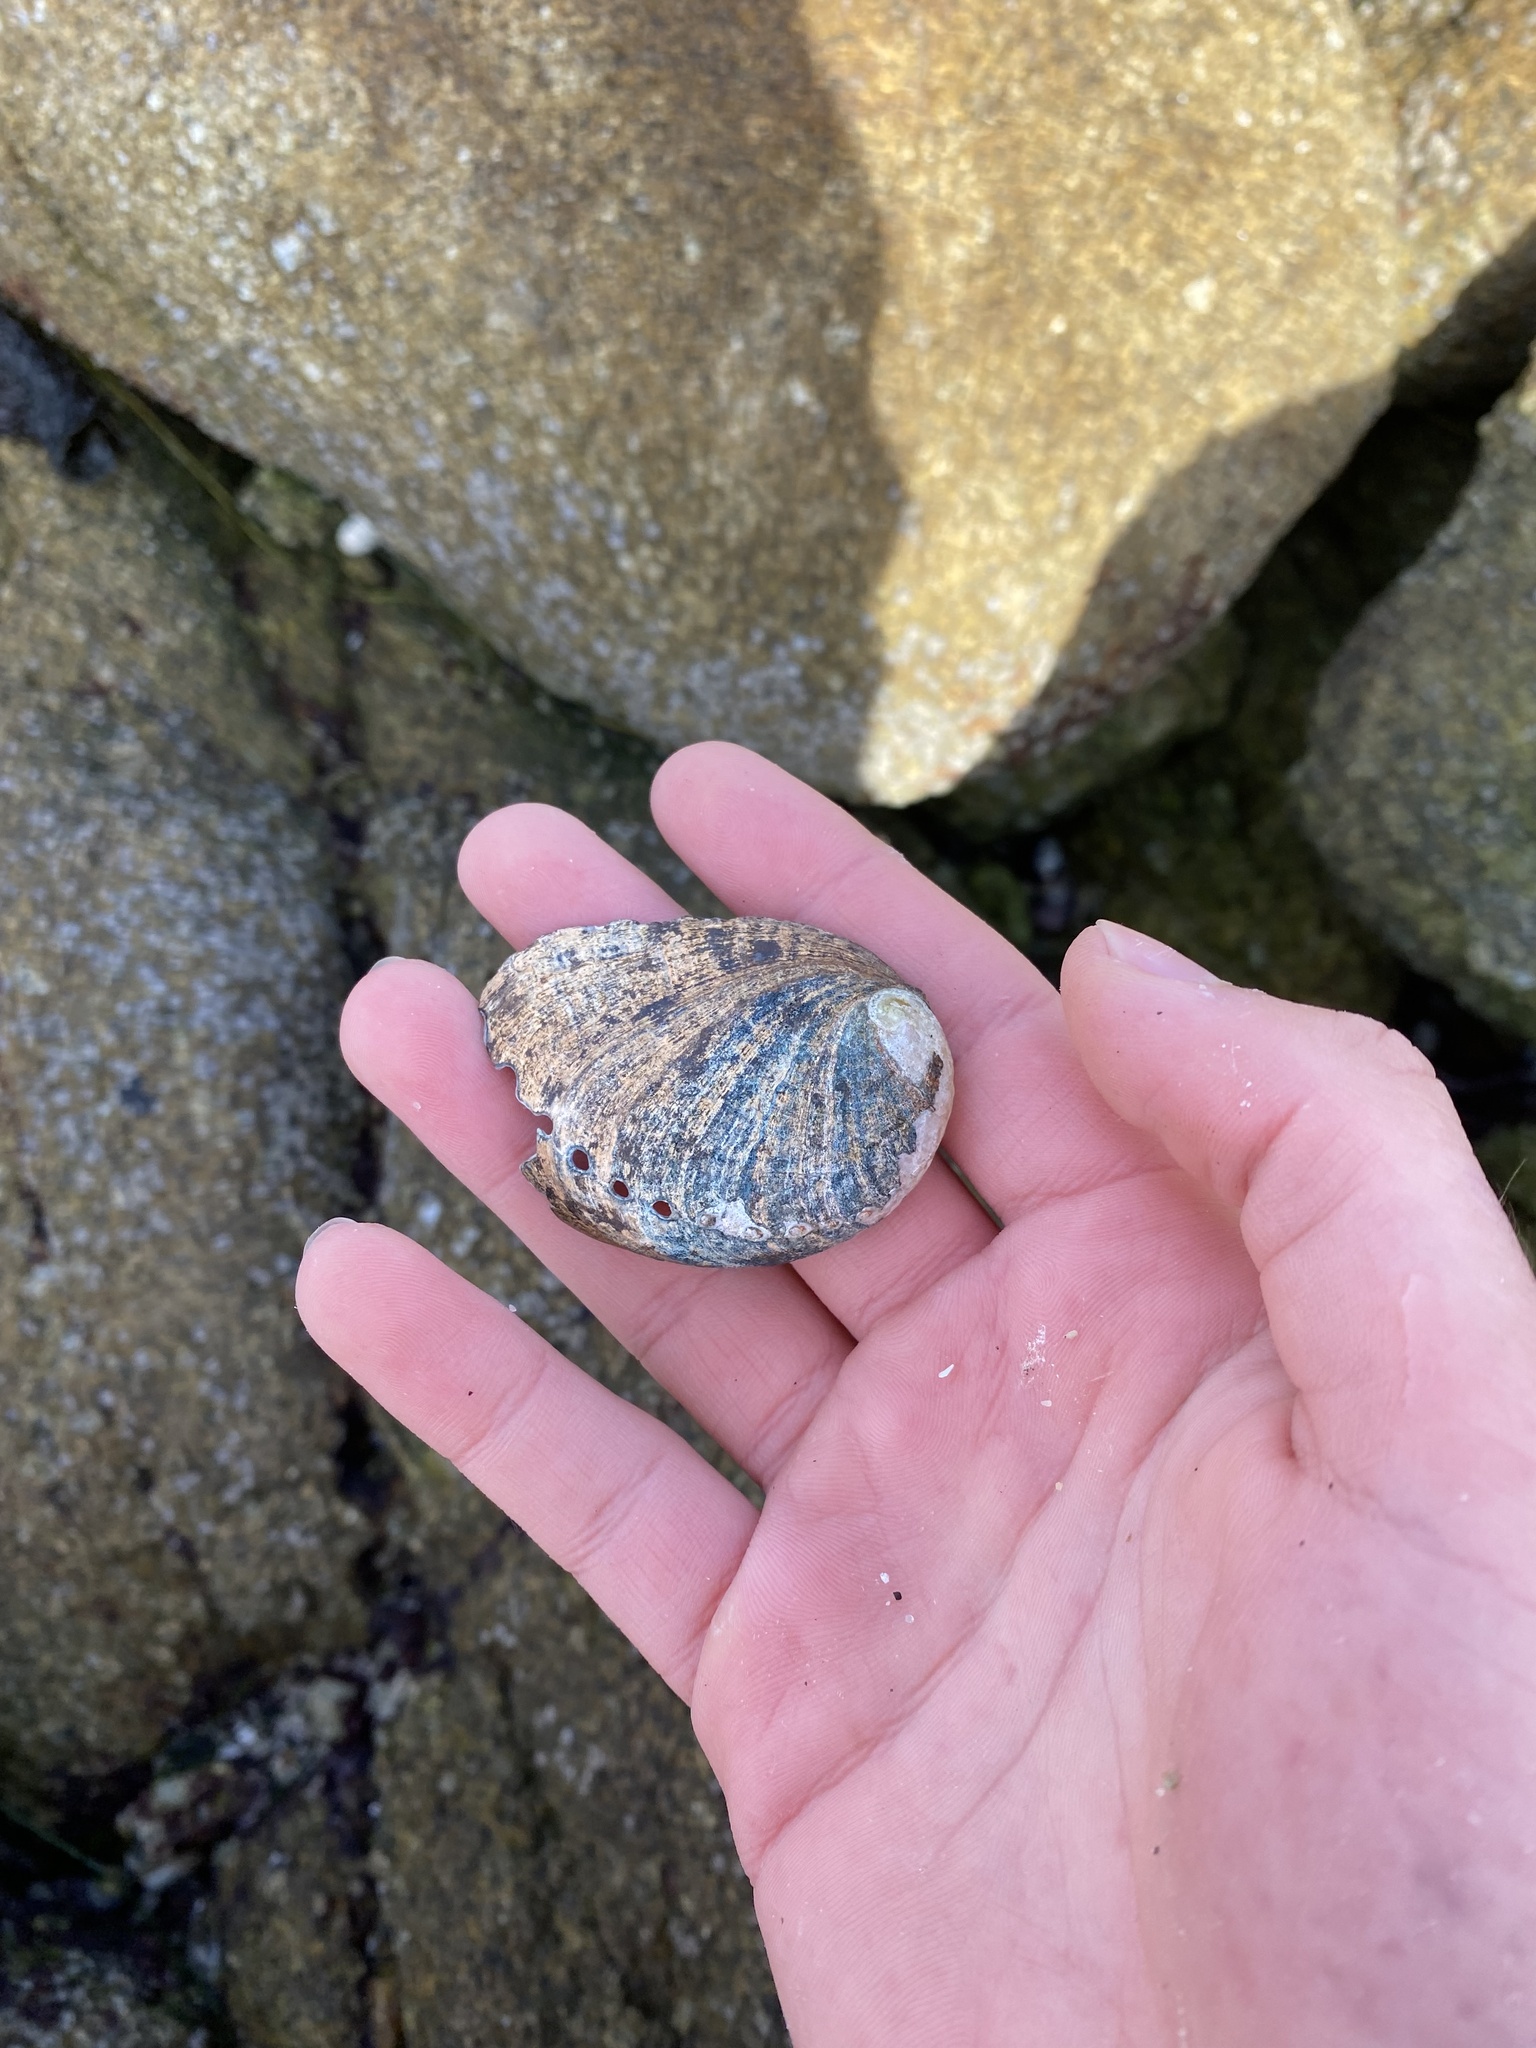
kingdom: Animalia
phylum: Mollusca
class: Gastropoda
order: Lepetellida
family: Haliotidae
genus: Haliotis
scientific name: Haliotis cracherodii
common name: Black abalone
